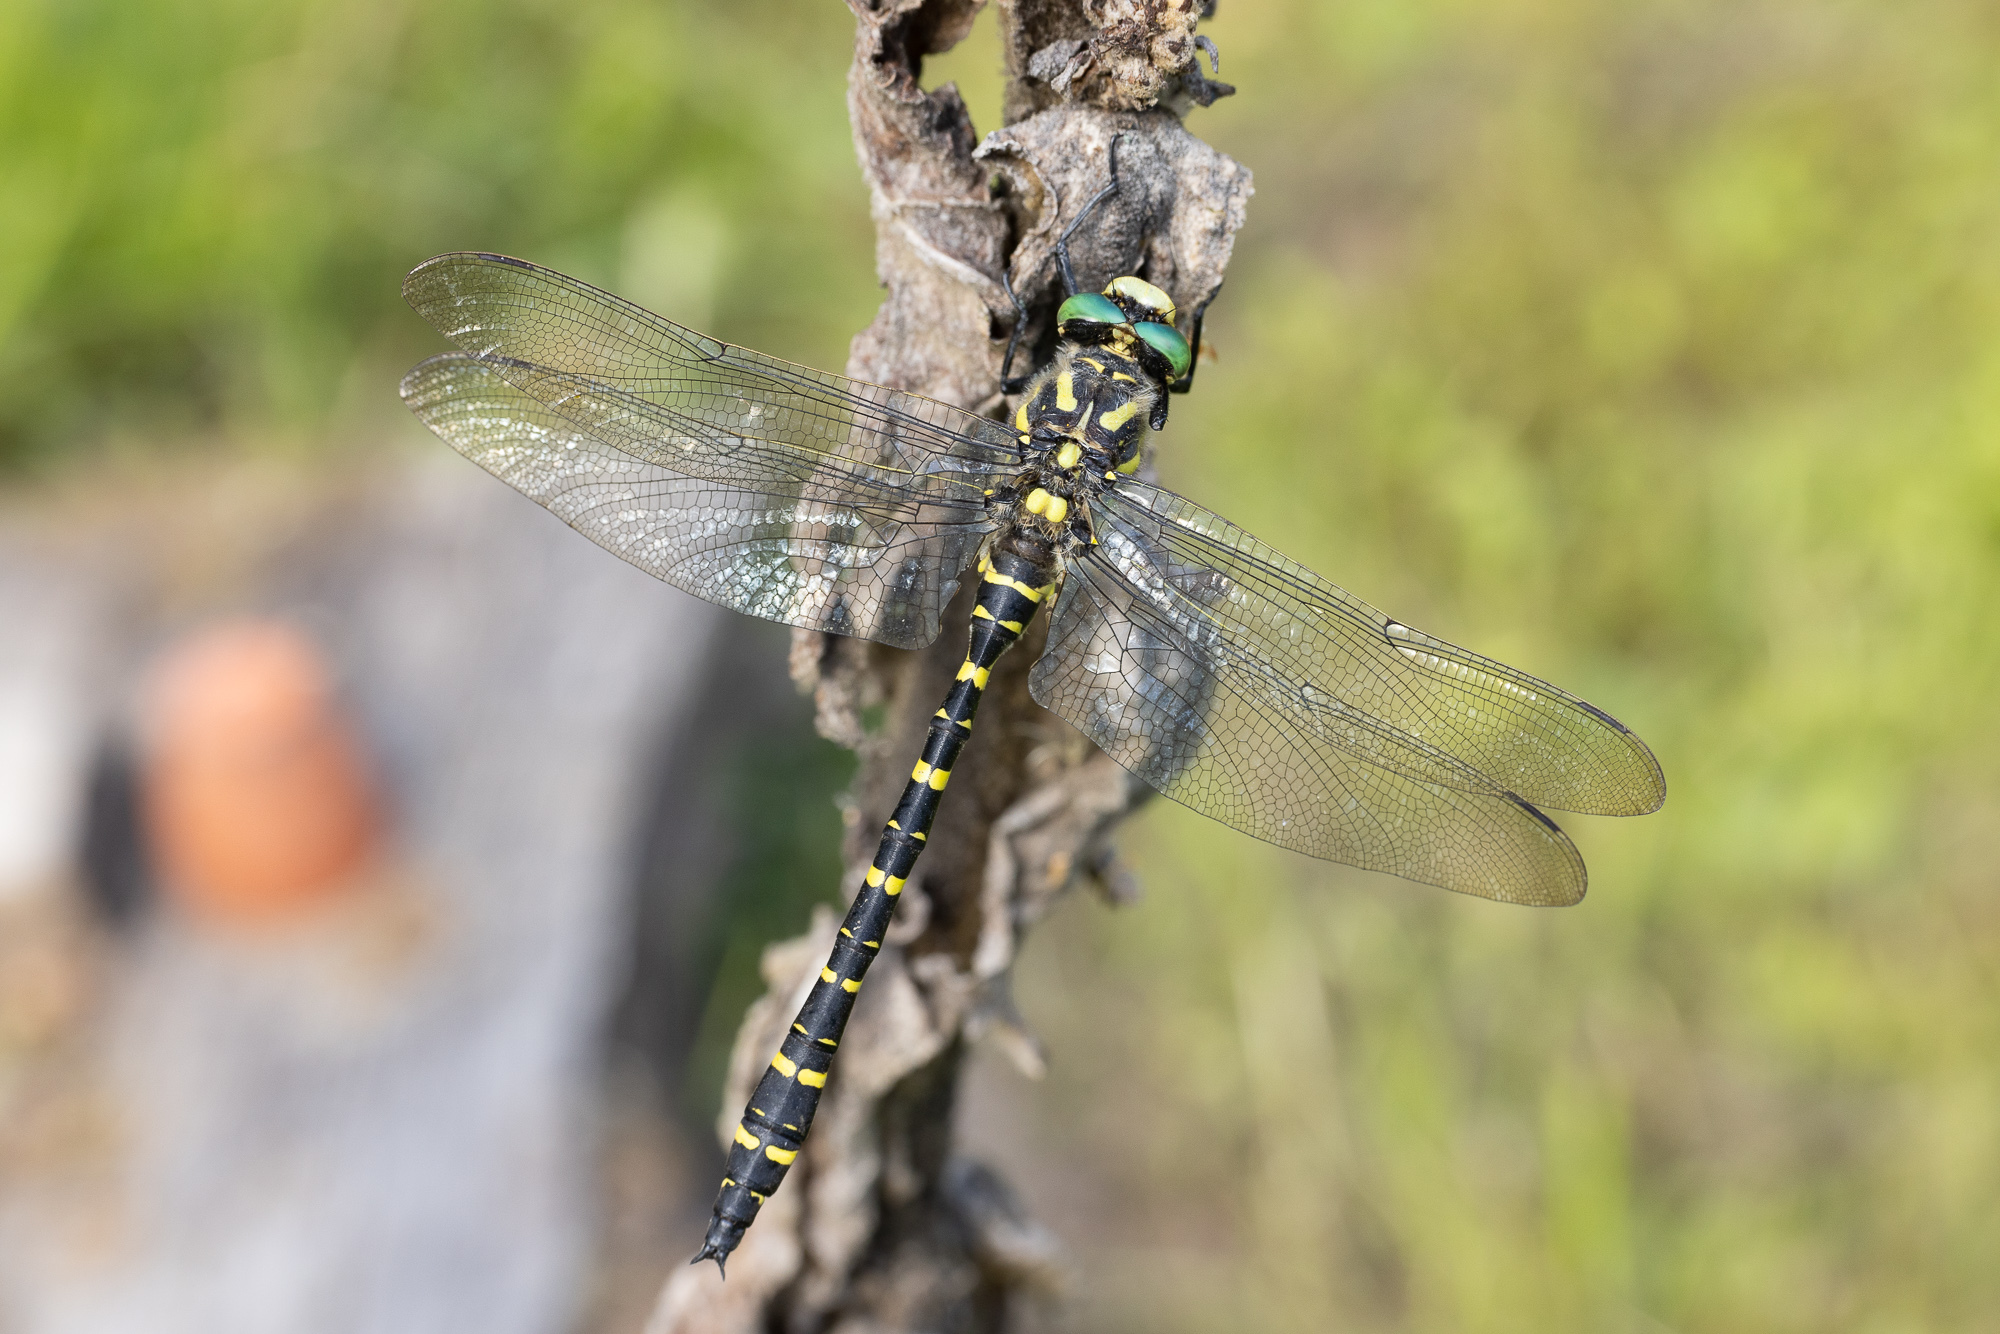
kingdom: Animalia
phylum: Arthropoda
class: Insecta
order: Odonata
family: Cordulegastridae
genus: Cordulegaster
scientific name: Cordulegaster boltonii
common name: Golden-ringed dragonfly
